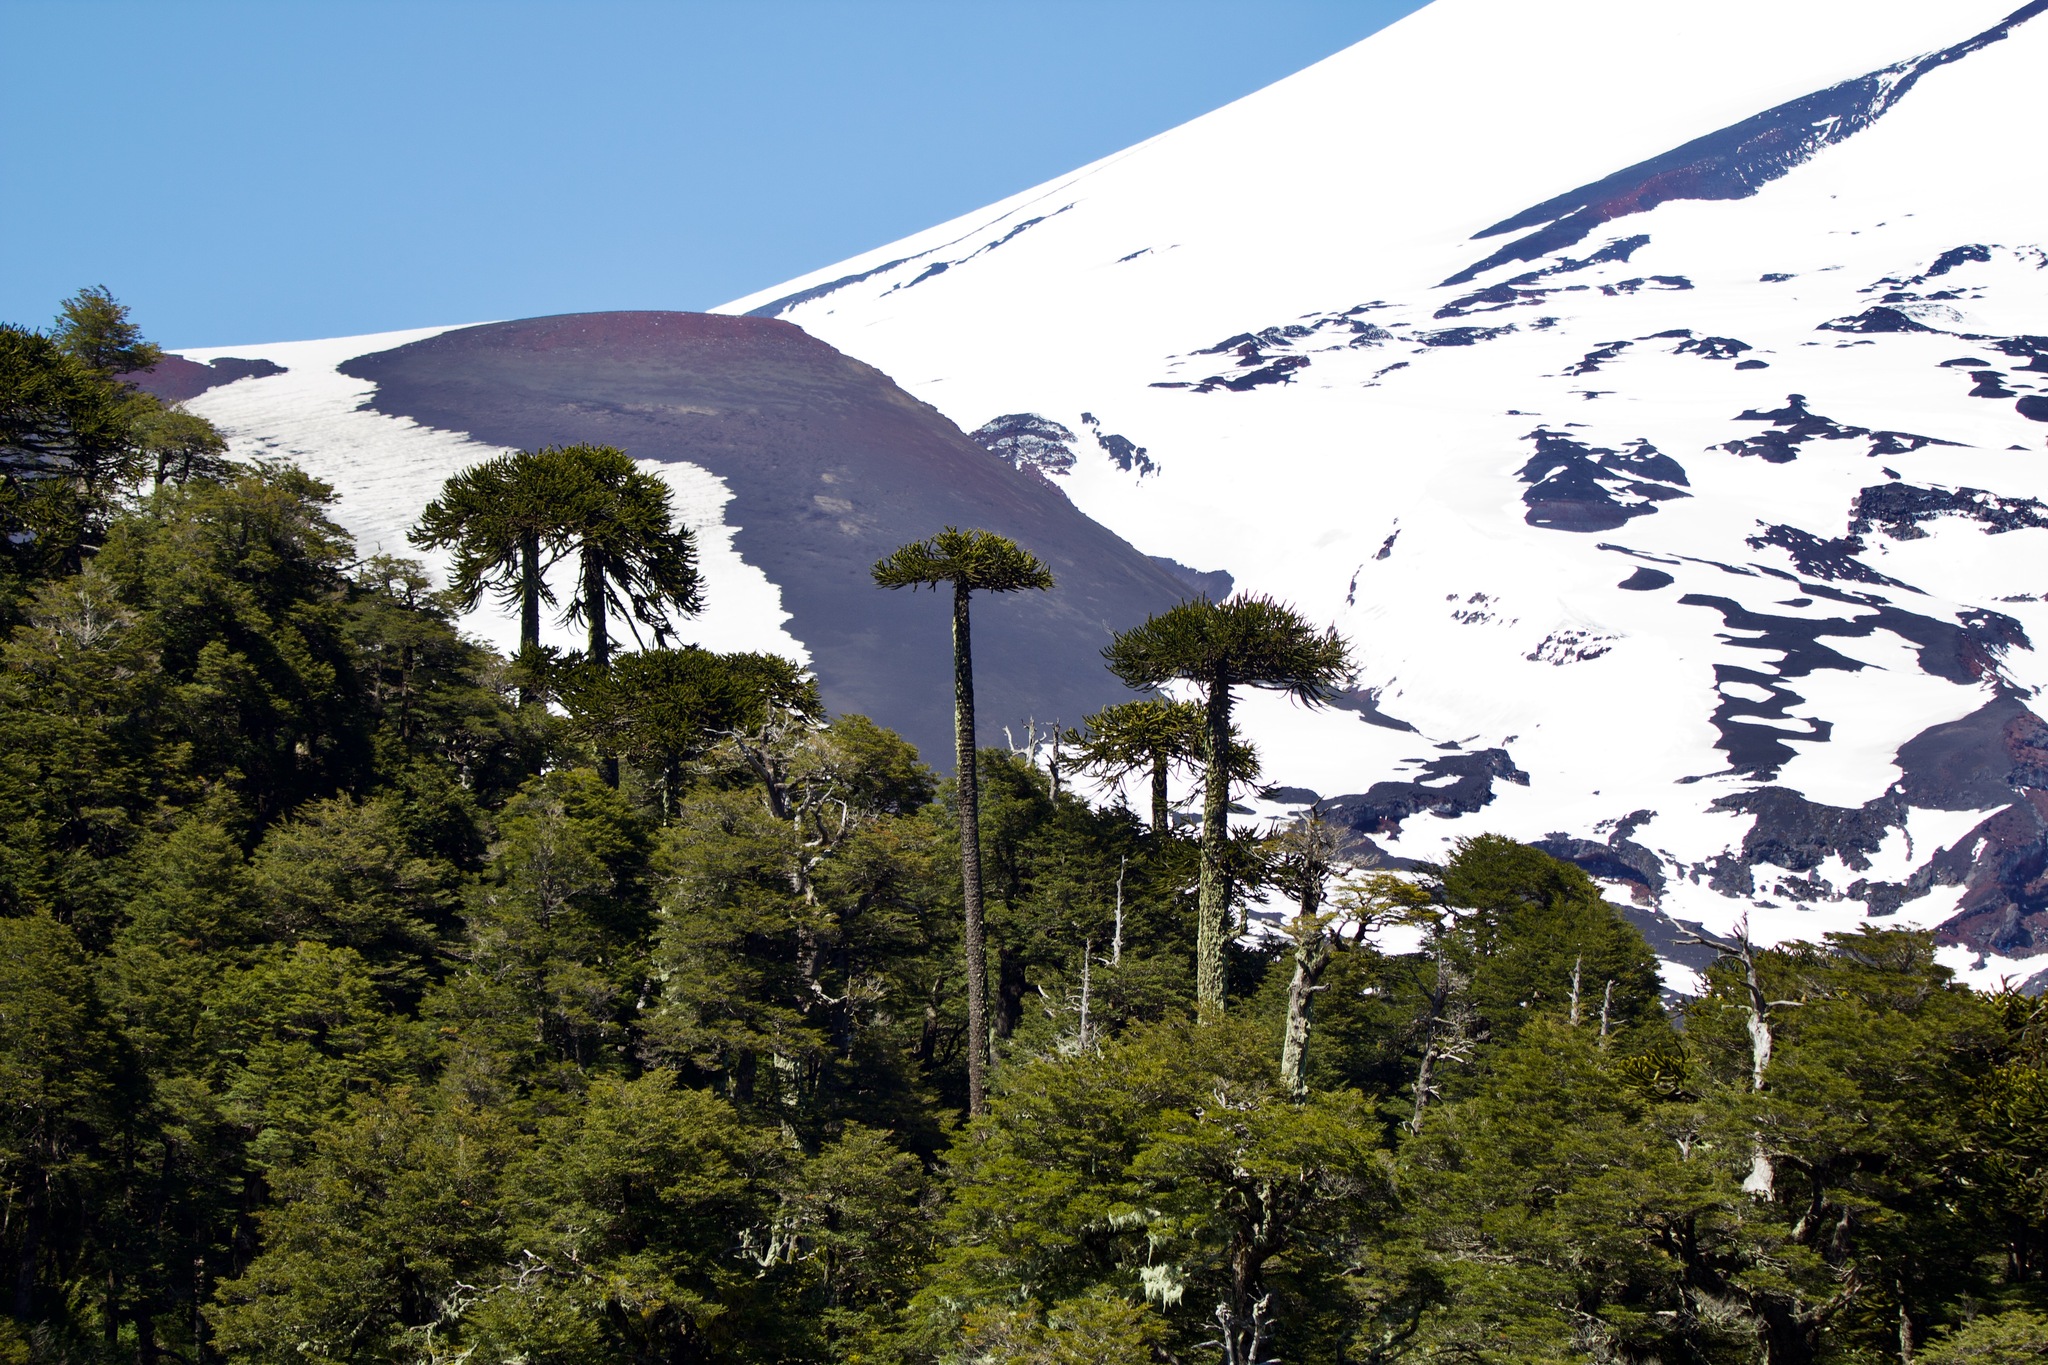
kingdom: Plantae
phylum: Tracheophyta
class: Pinopsida
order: Pinales
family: Araucariaceae
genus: Araucaria
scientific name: Araucaria araucana
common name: Monkey-puzzle
